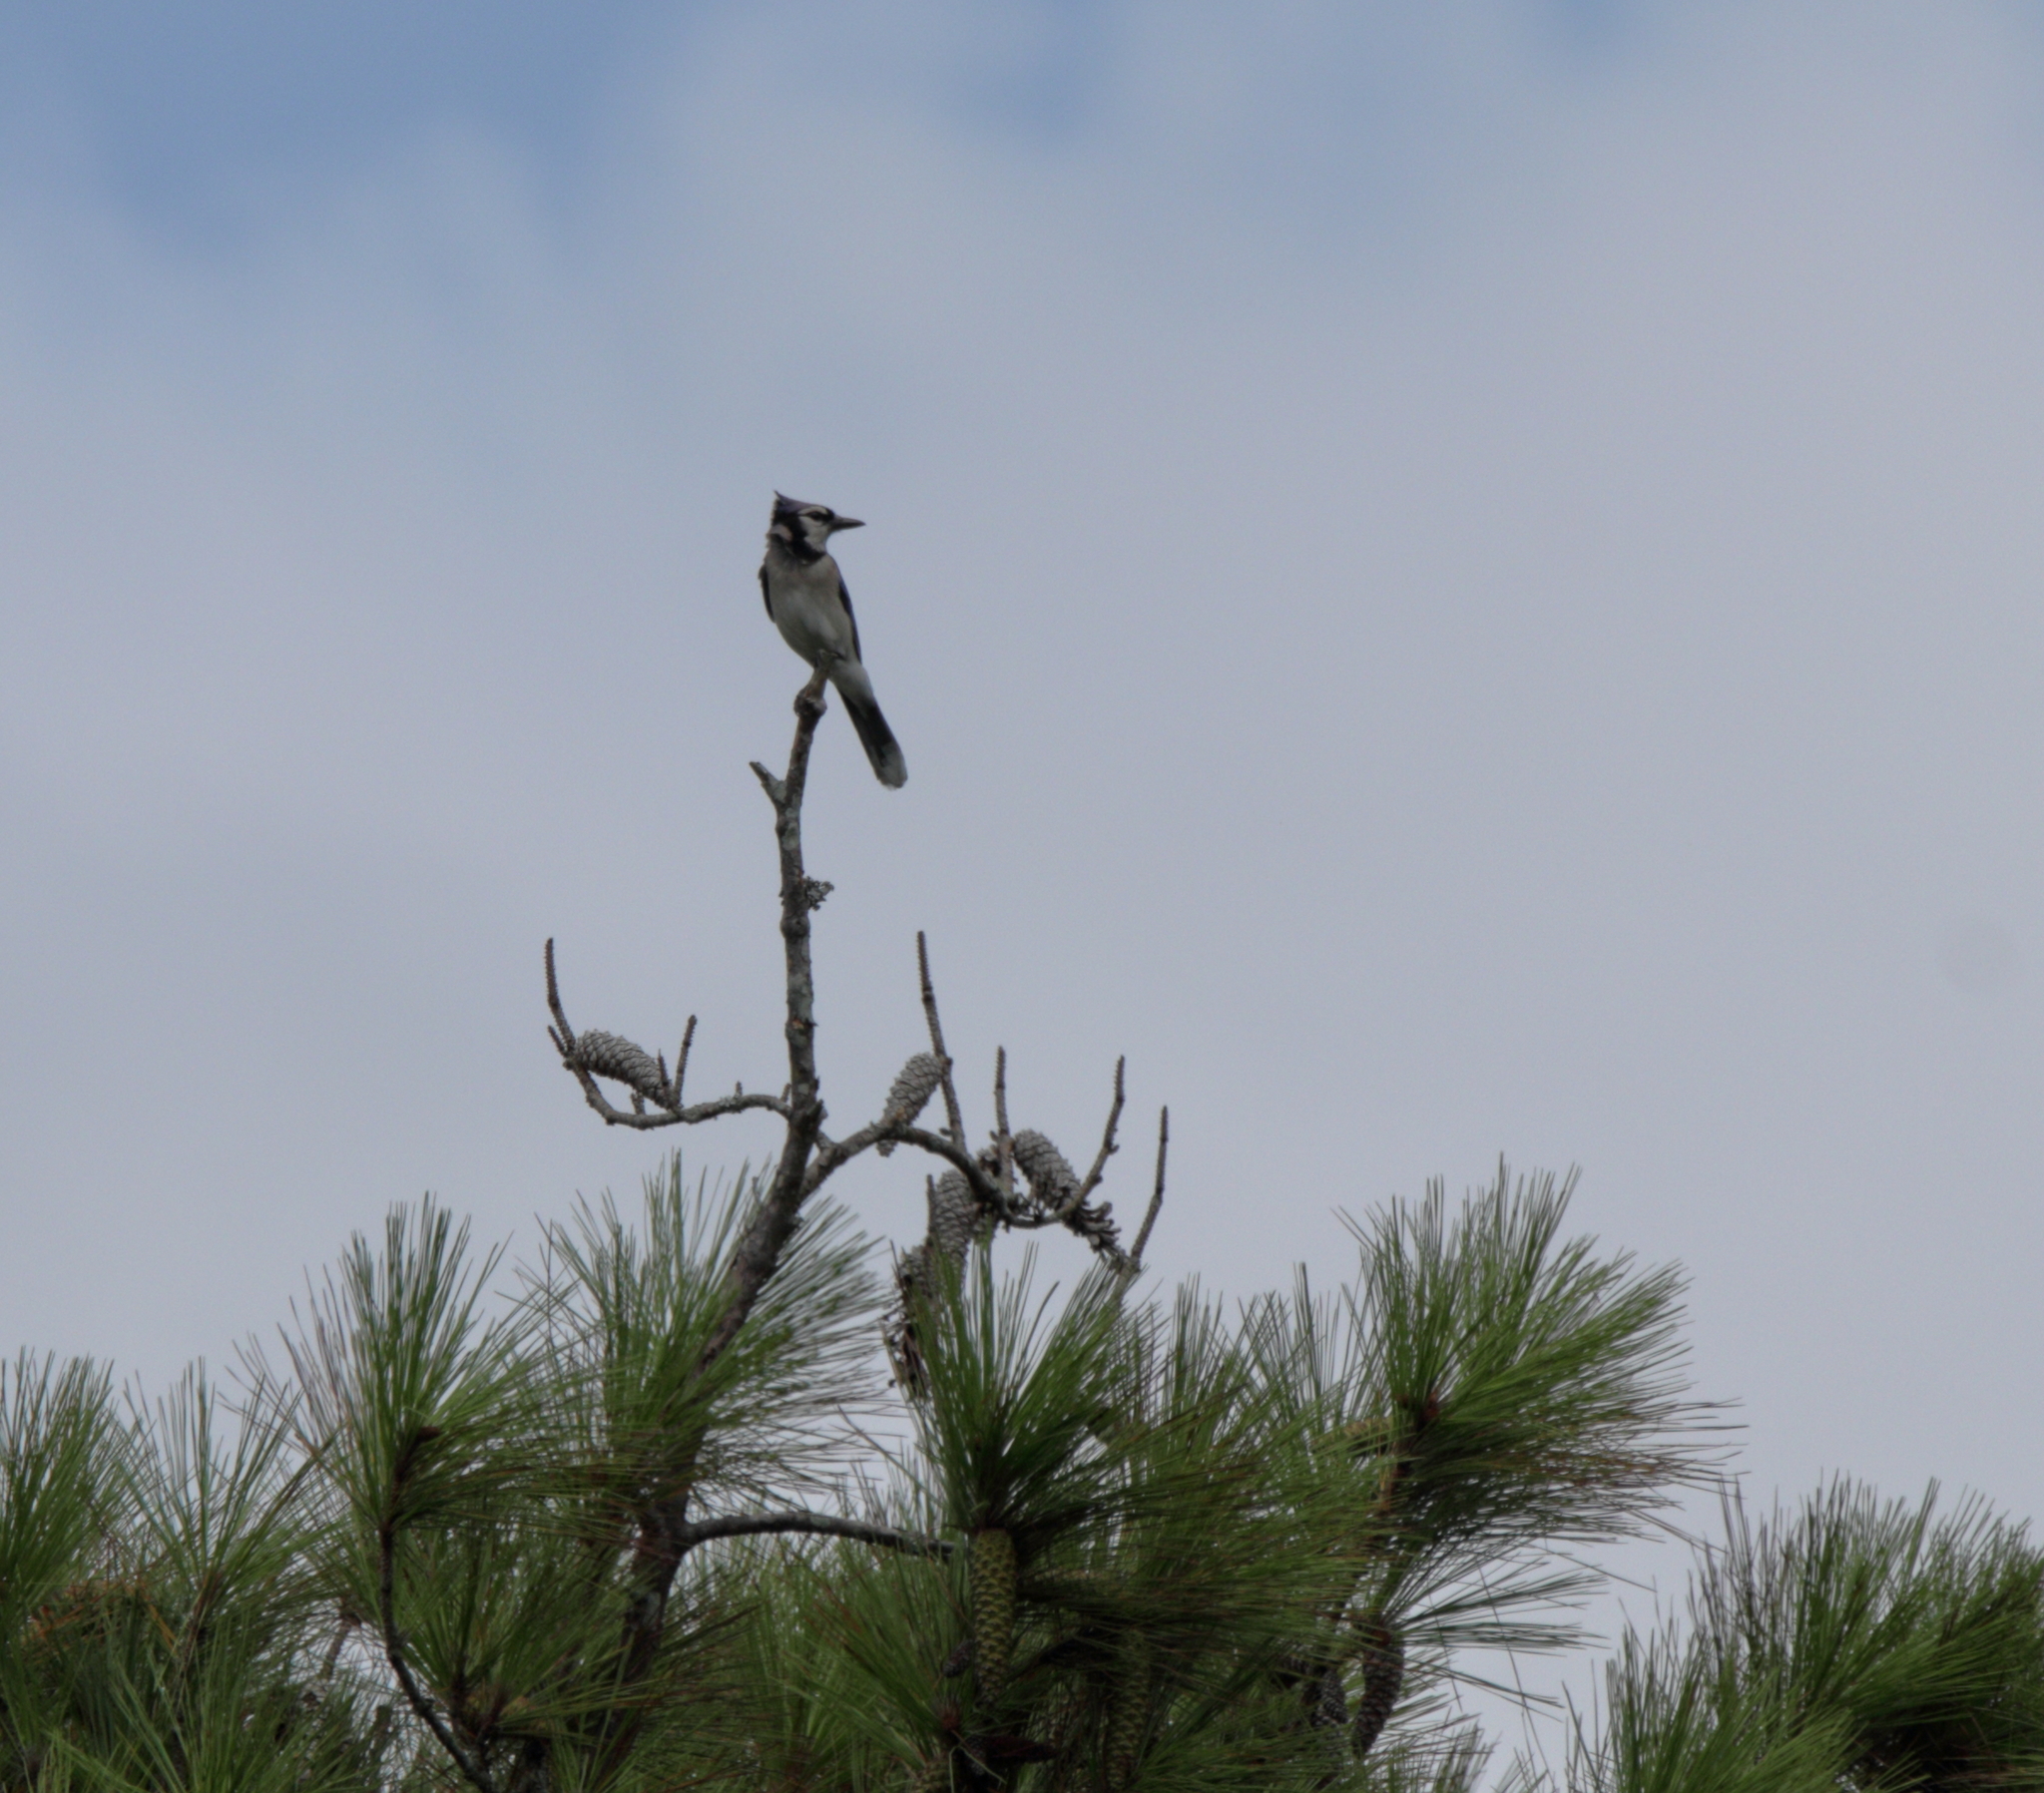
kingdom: Animalia
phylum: Chordata
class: Aves
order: Passeriformes
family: Corvidae
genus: Cyanocitta
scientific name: Cyanocitta cristata
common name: Blue jay
